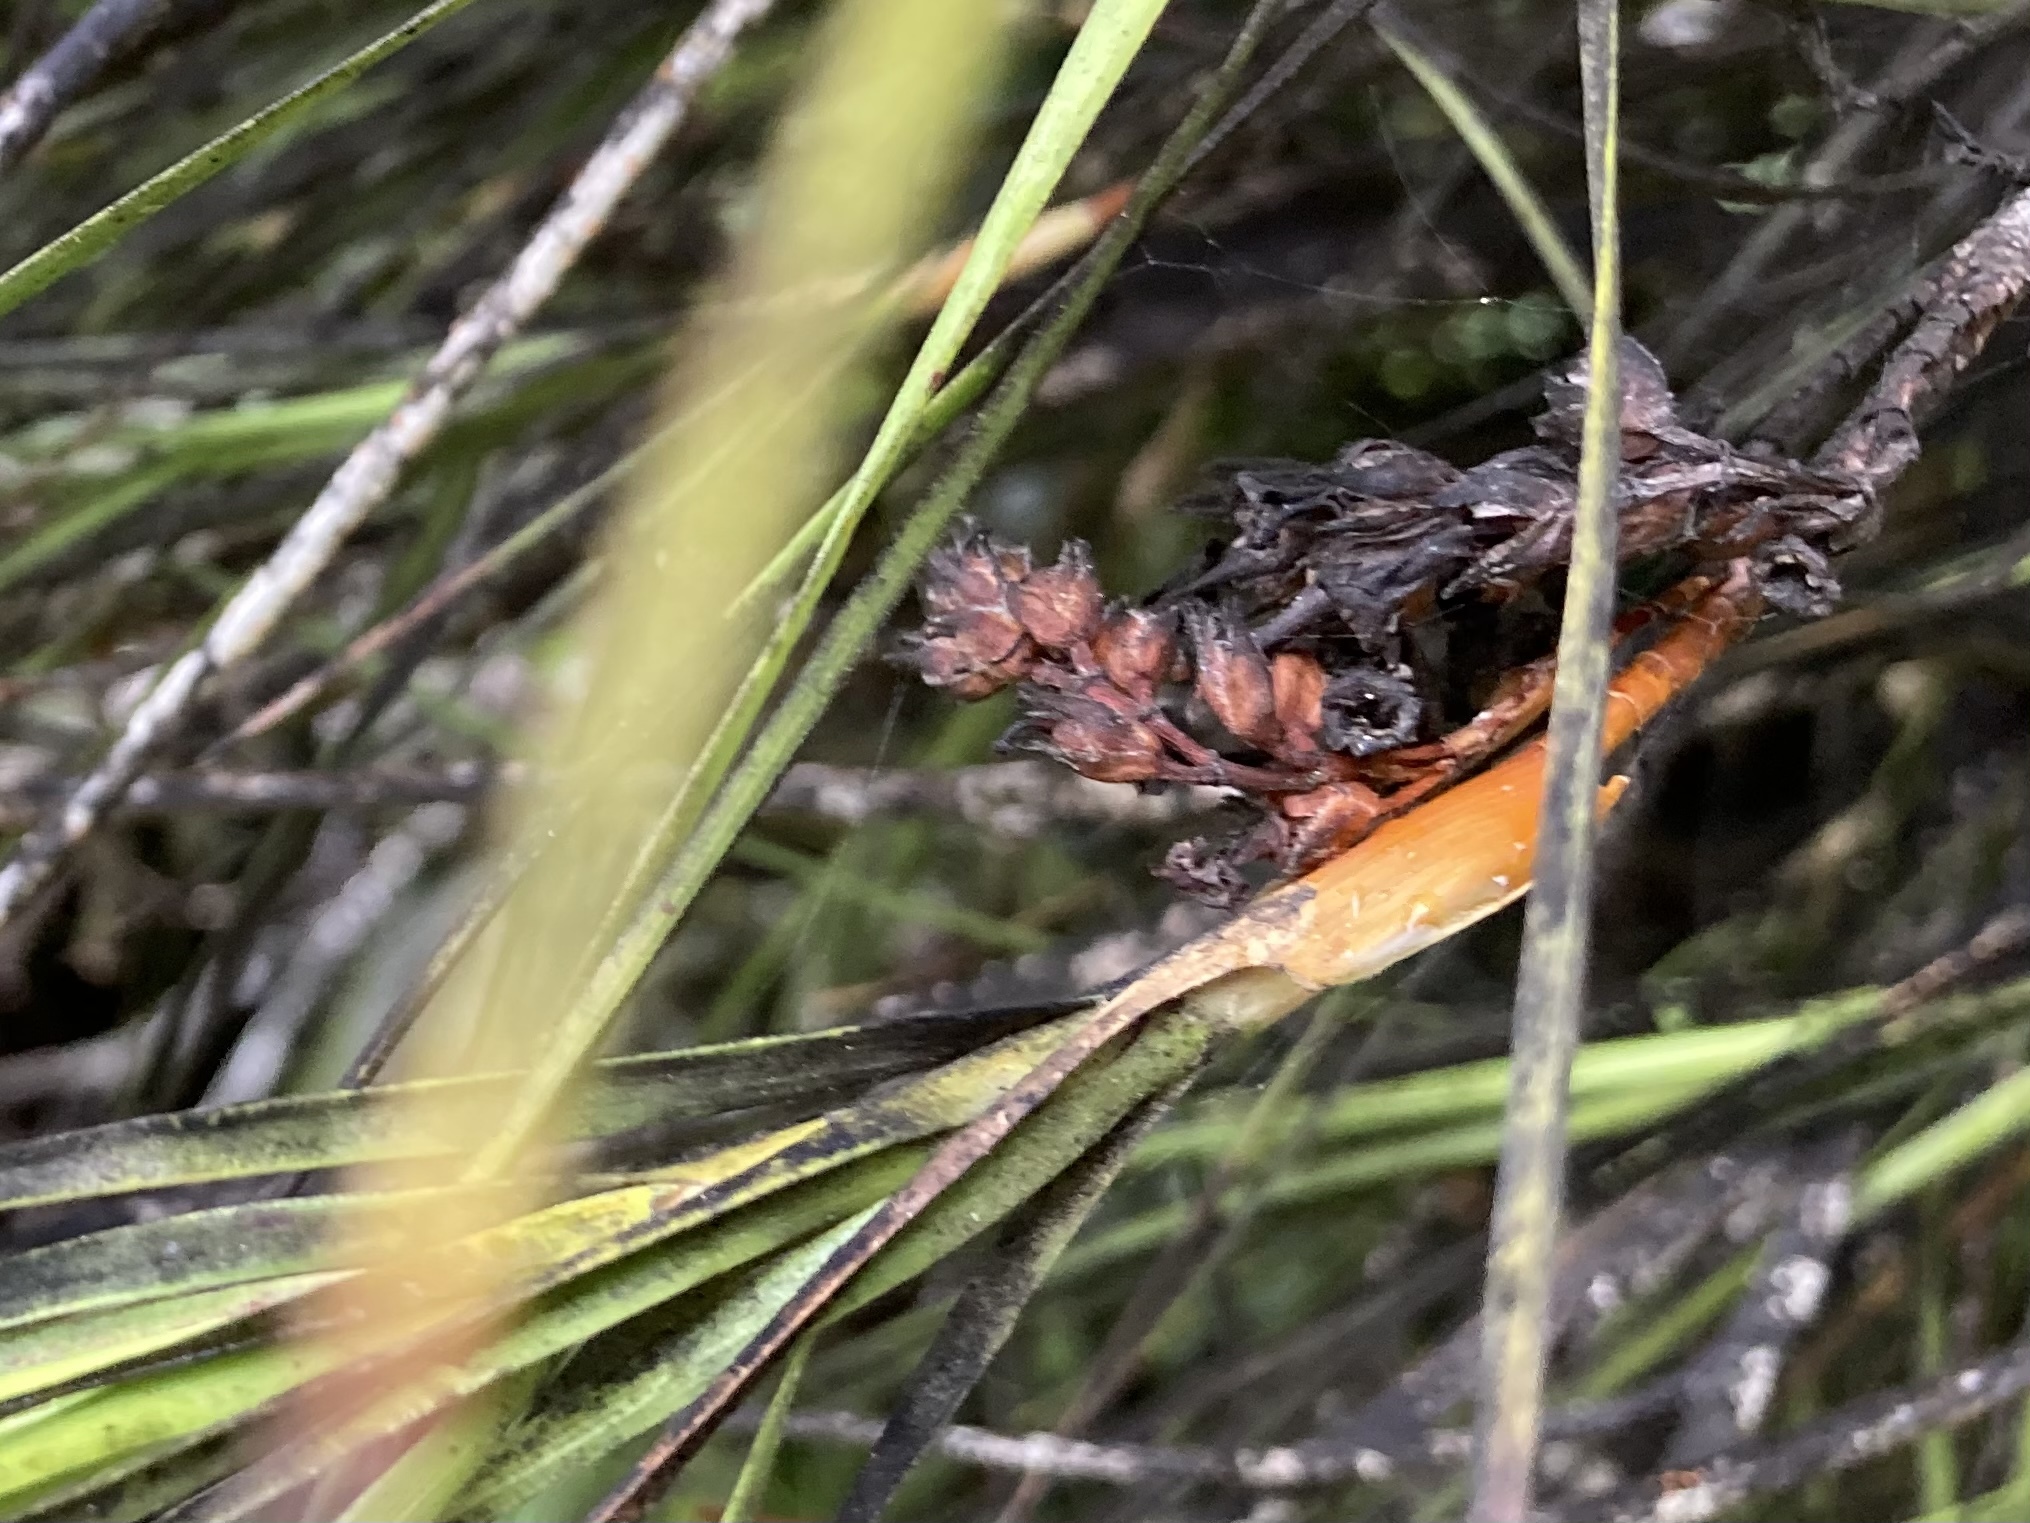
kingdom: Plantae
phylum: Tracheophyta
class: Magnoliopsida
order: Ericales
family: Ericaceae
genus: Dracophyllum
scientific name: Dracophyllum longifolium
